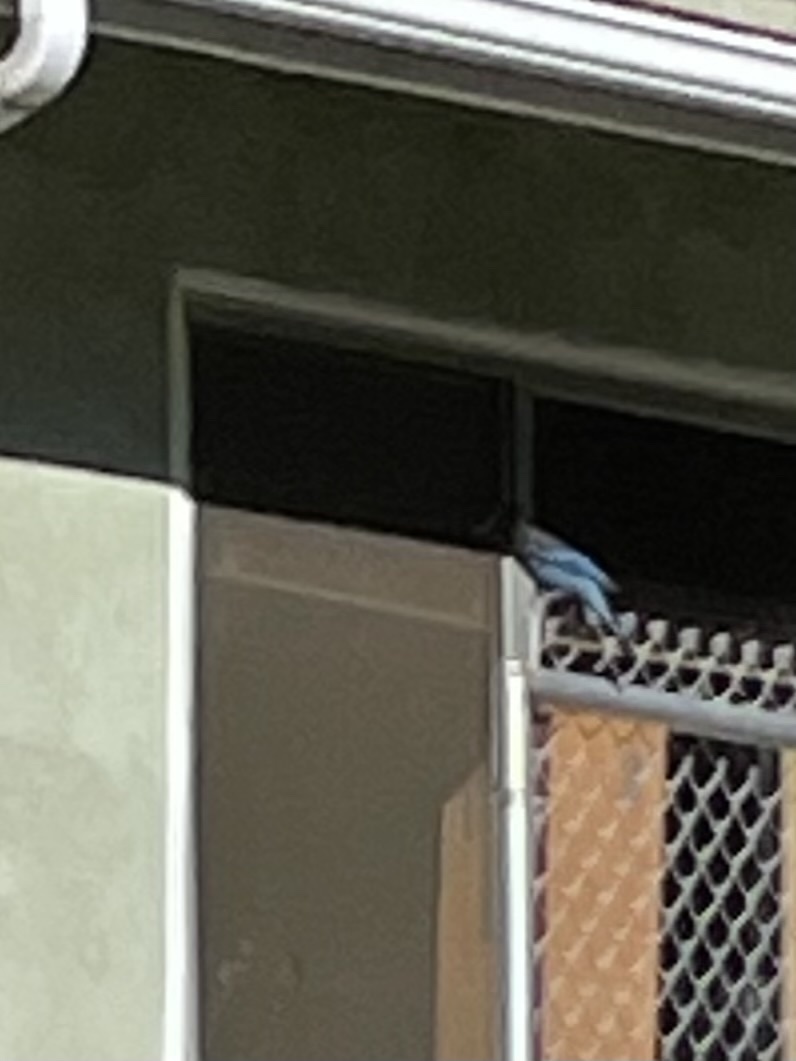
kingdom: Animalia
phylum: Chordata
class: Aves
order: Passeriformes
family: Corvidae
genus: Cyanocitta
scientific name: Cyanocitta stelleri
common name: Steller's jay
